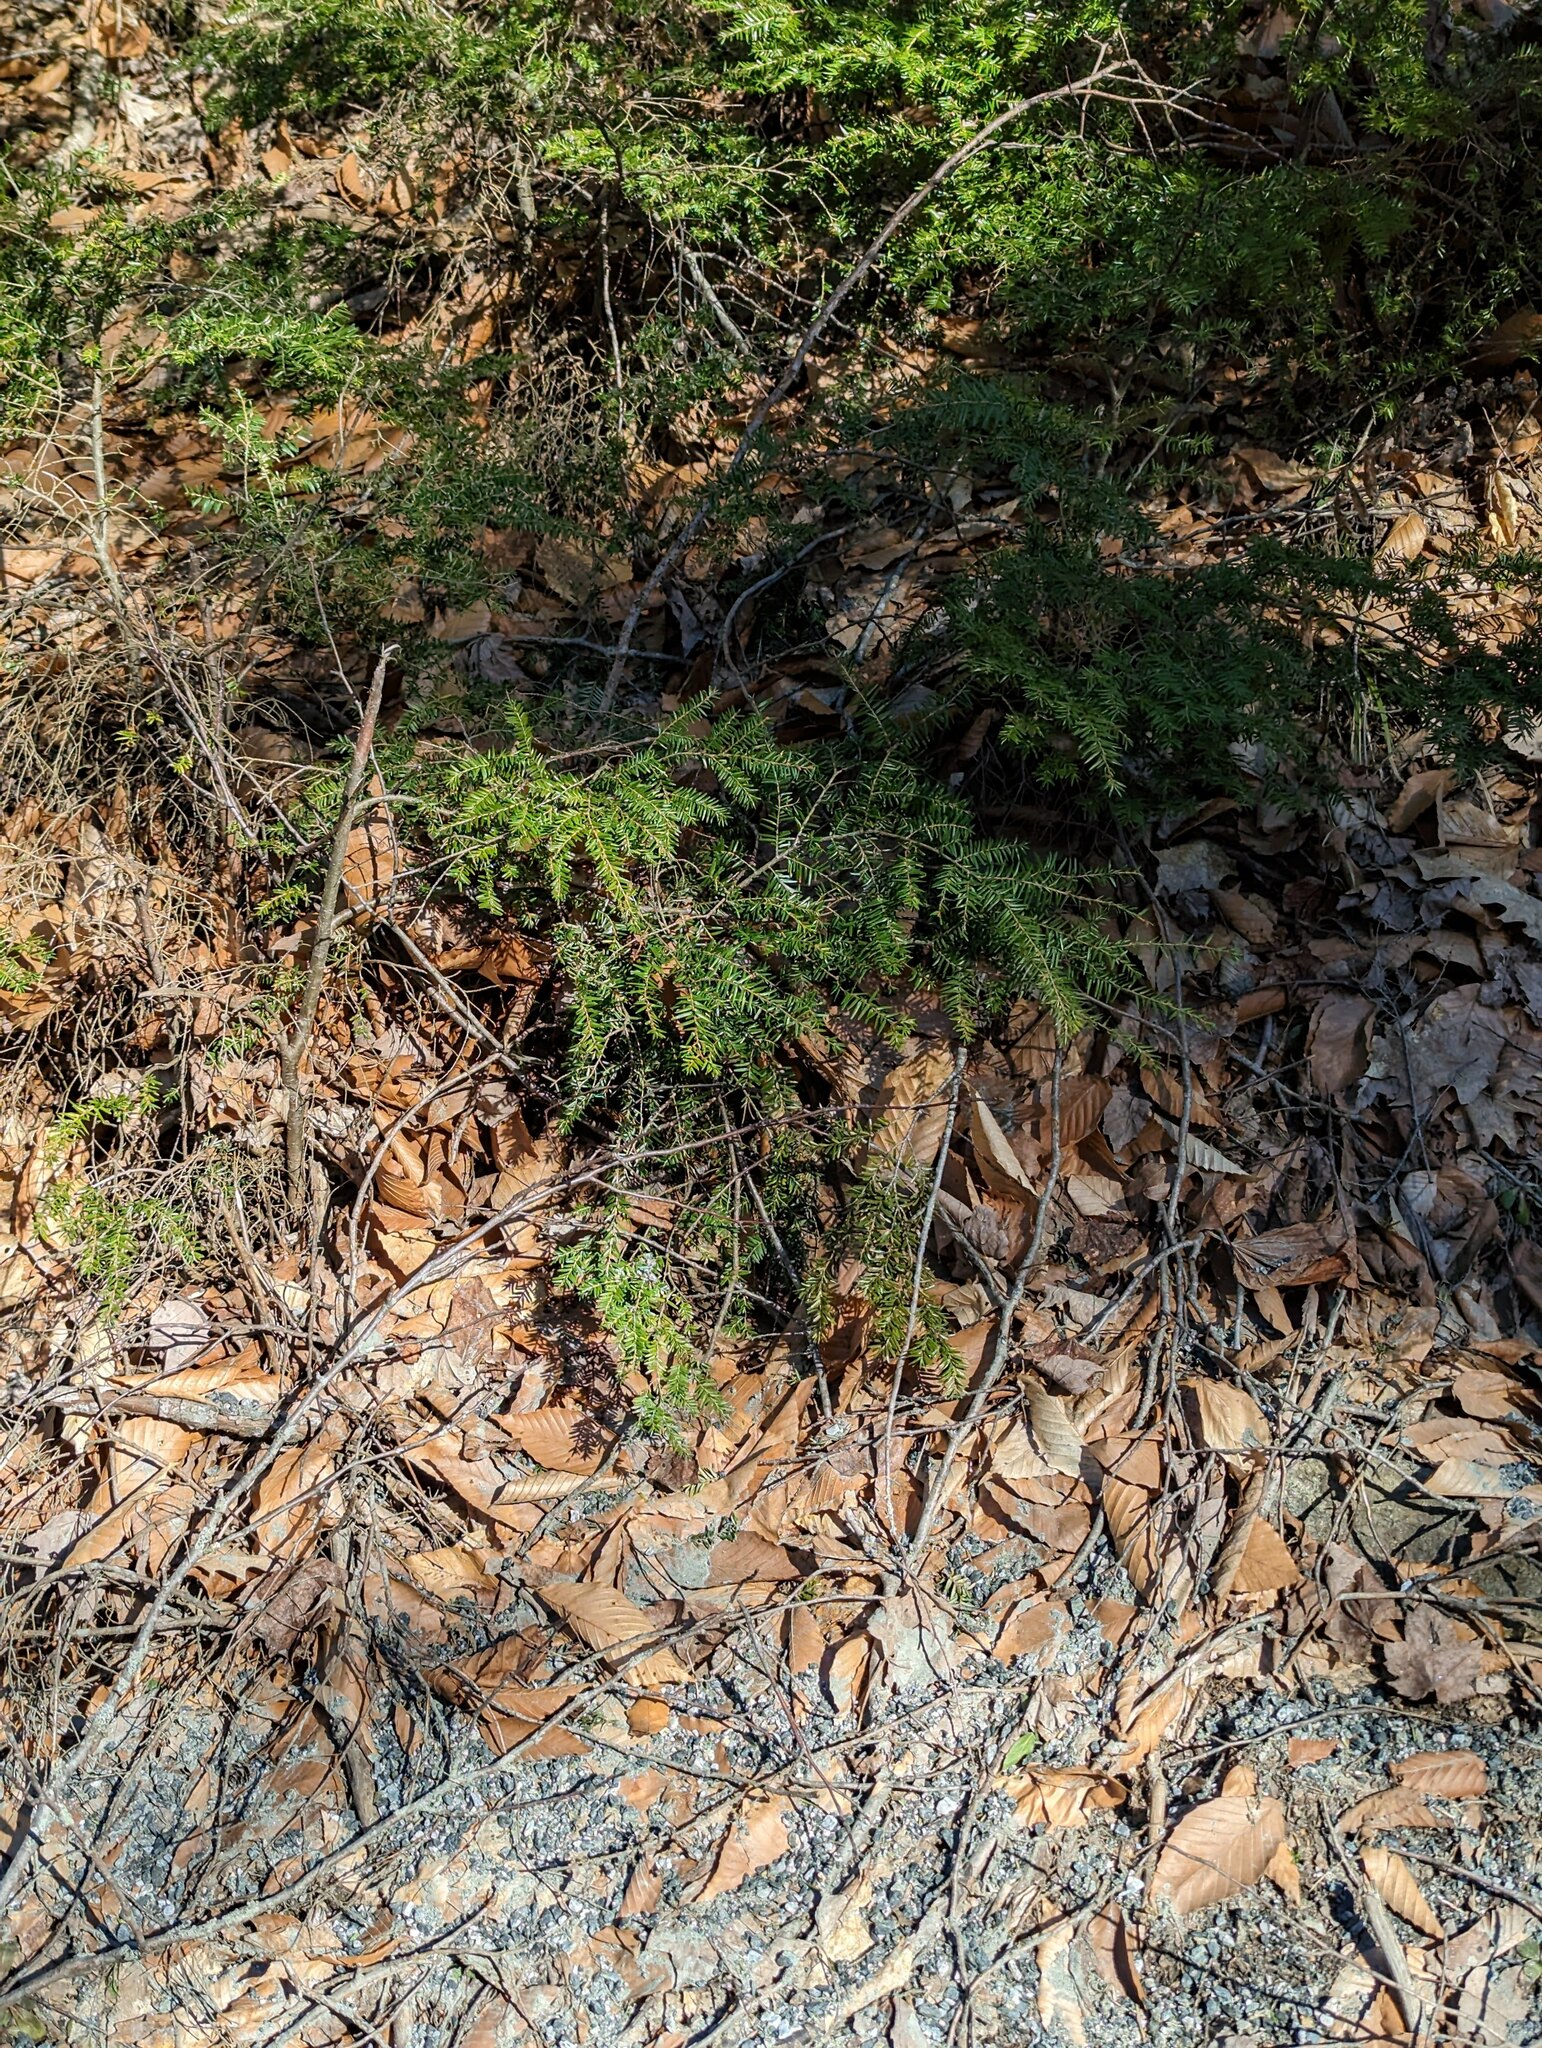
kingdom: Plantae
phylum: Tracheophyta
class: Pinopsida
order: Pinales
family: Pinaceae
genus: Tsuga
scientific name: Tsuga canadensis
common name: Eastern hemlock
